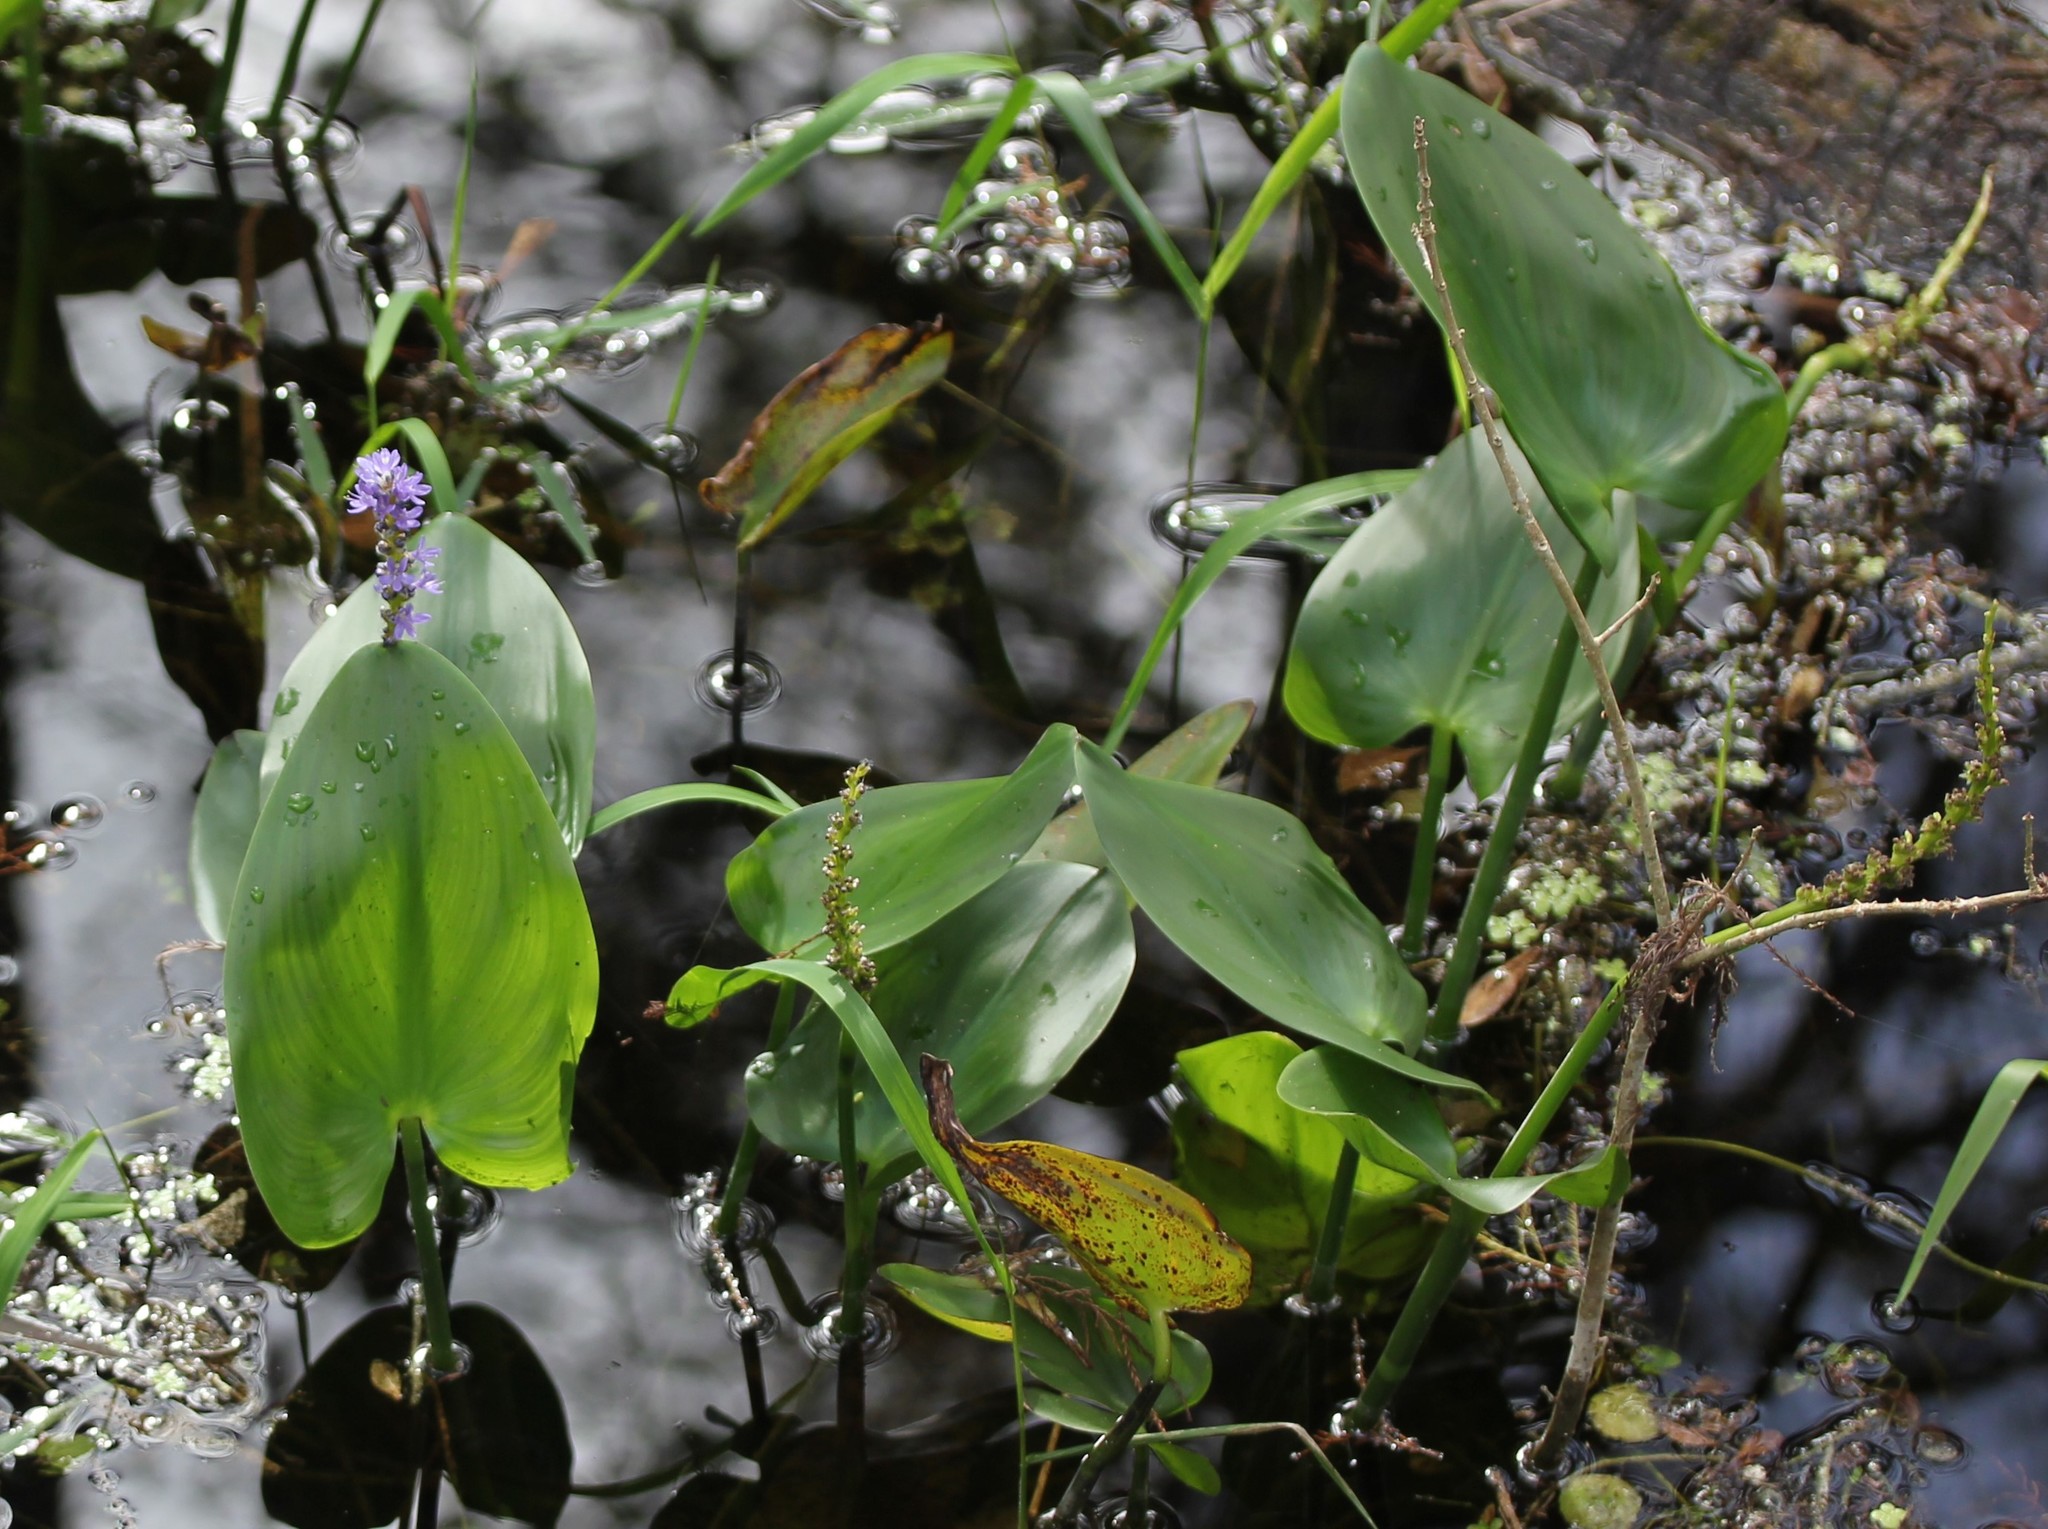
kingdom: Plantae
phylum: Tracheophyta
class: Liliopsida
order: Commelinales
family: Pontederiaceae
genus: Pontederia
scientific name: Pontederia cordata
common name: Pickerelweed
